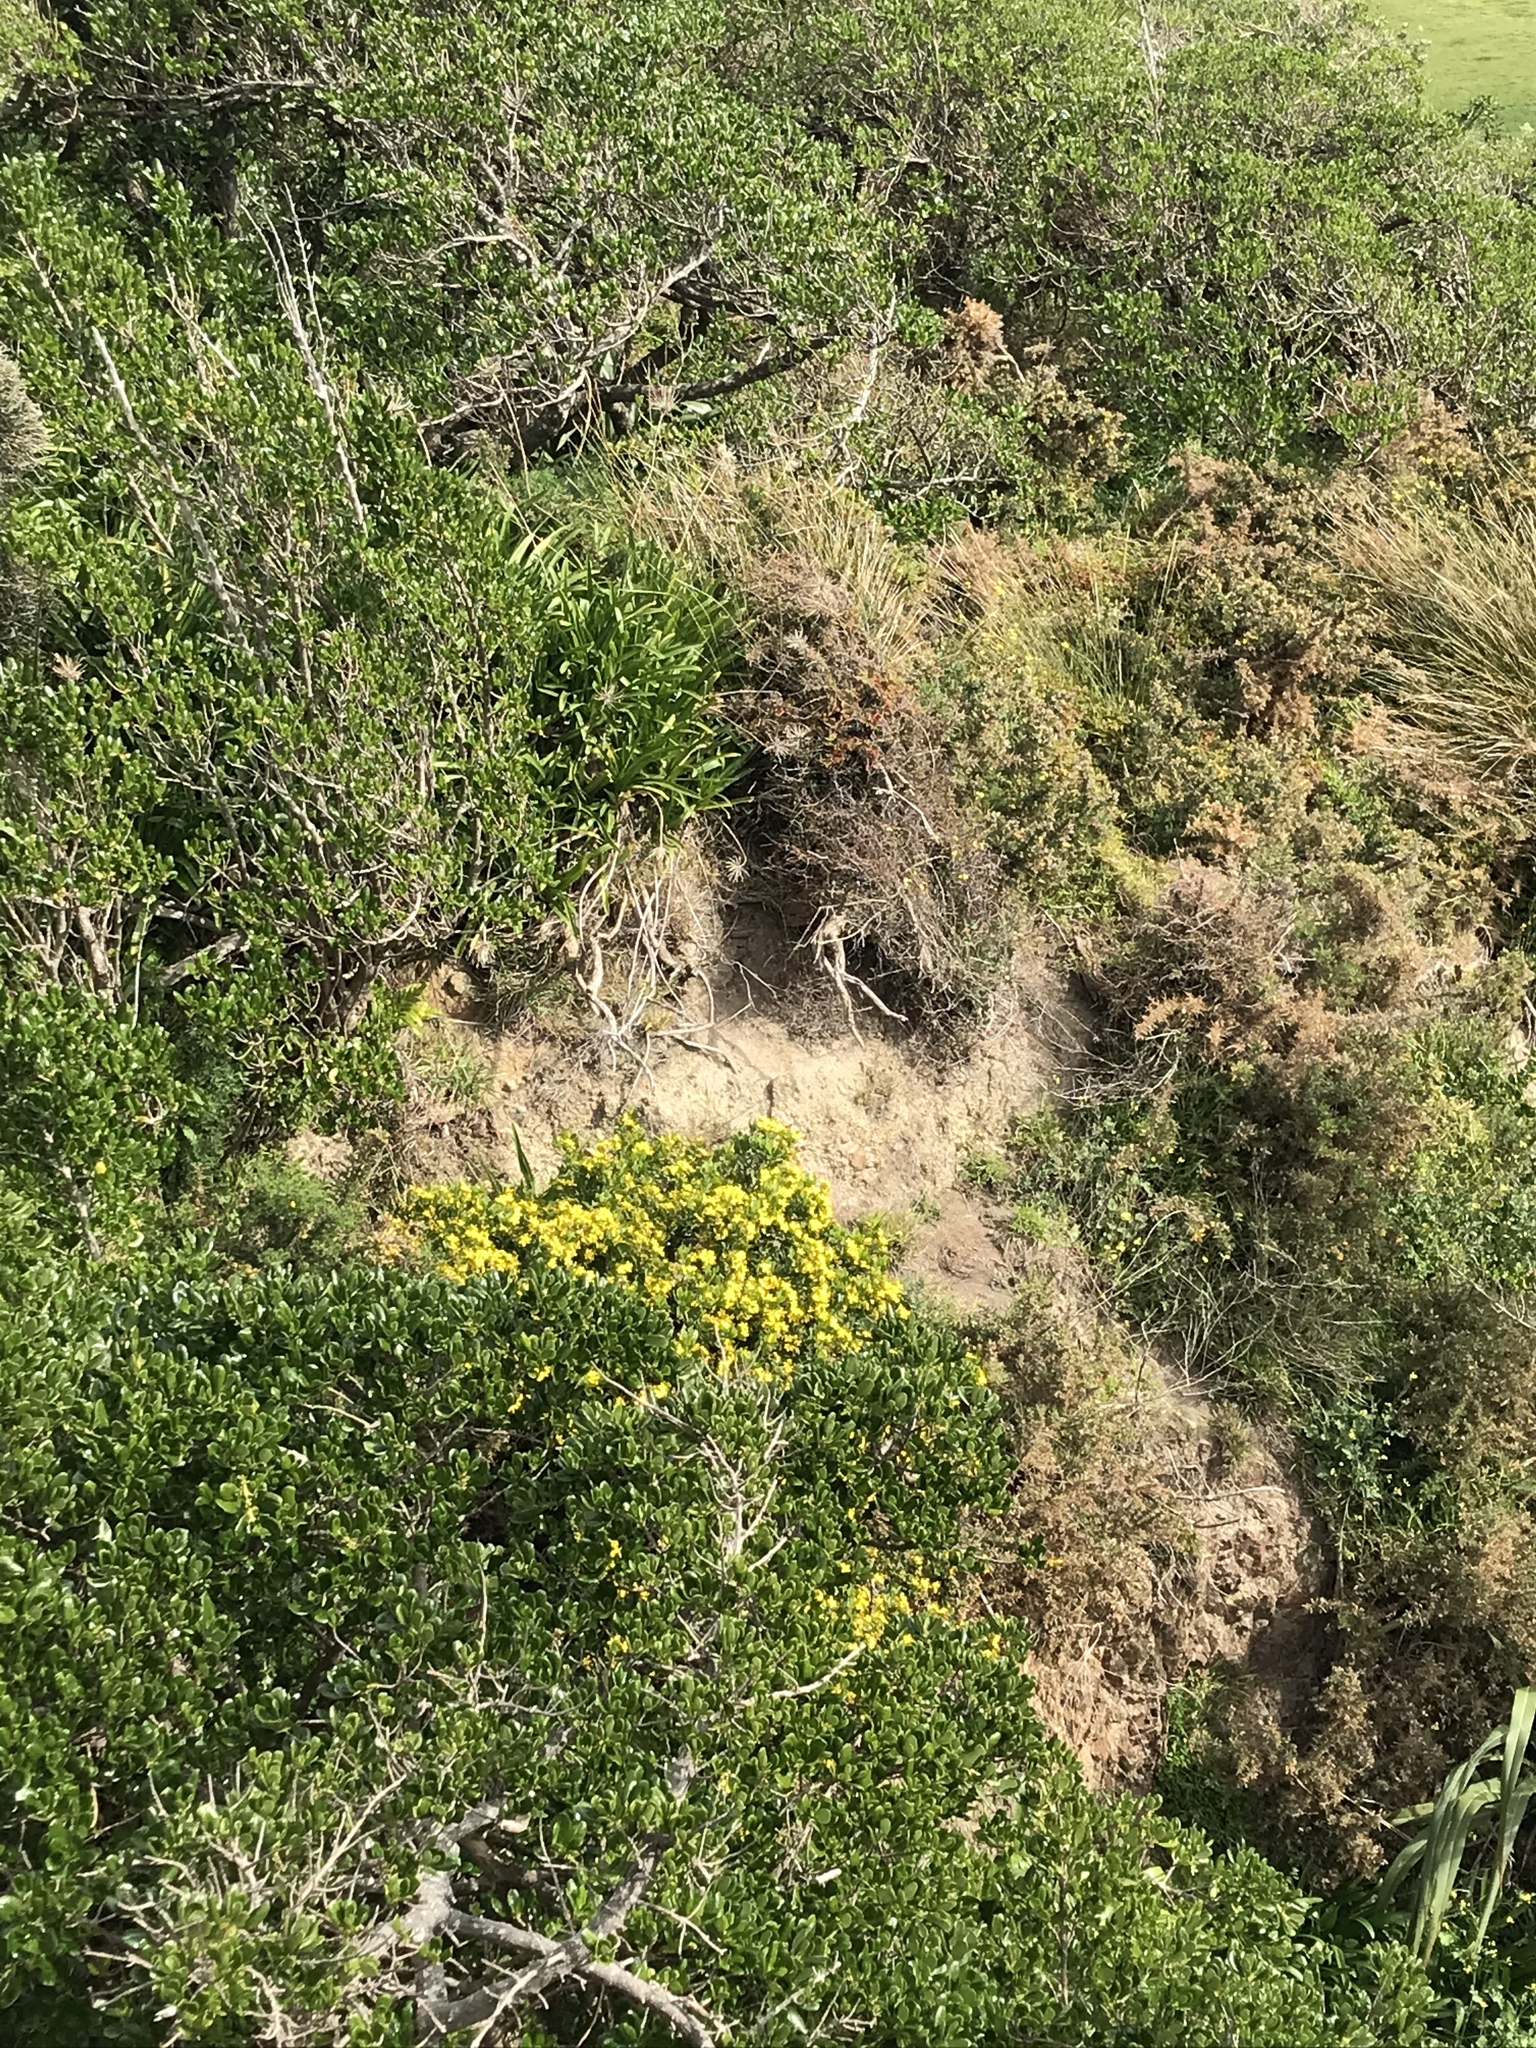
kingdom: Plantae
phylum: Tracheophyta
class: Magnoliopsida
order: Asterales
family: Asteraceae
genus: Osteospermum
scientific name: Osteospermum moniliferum
